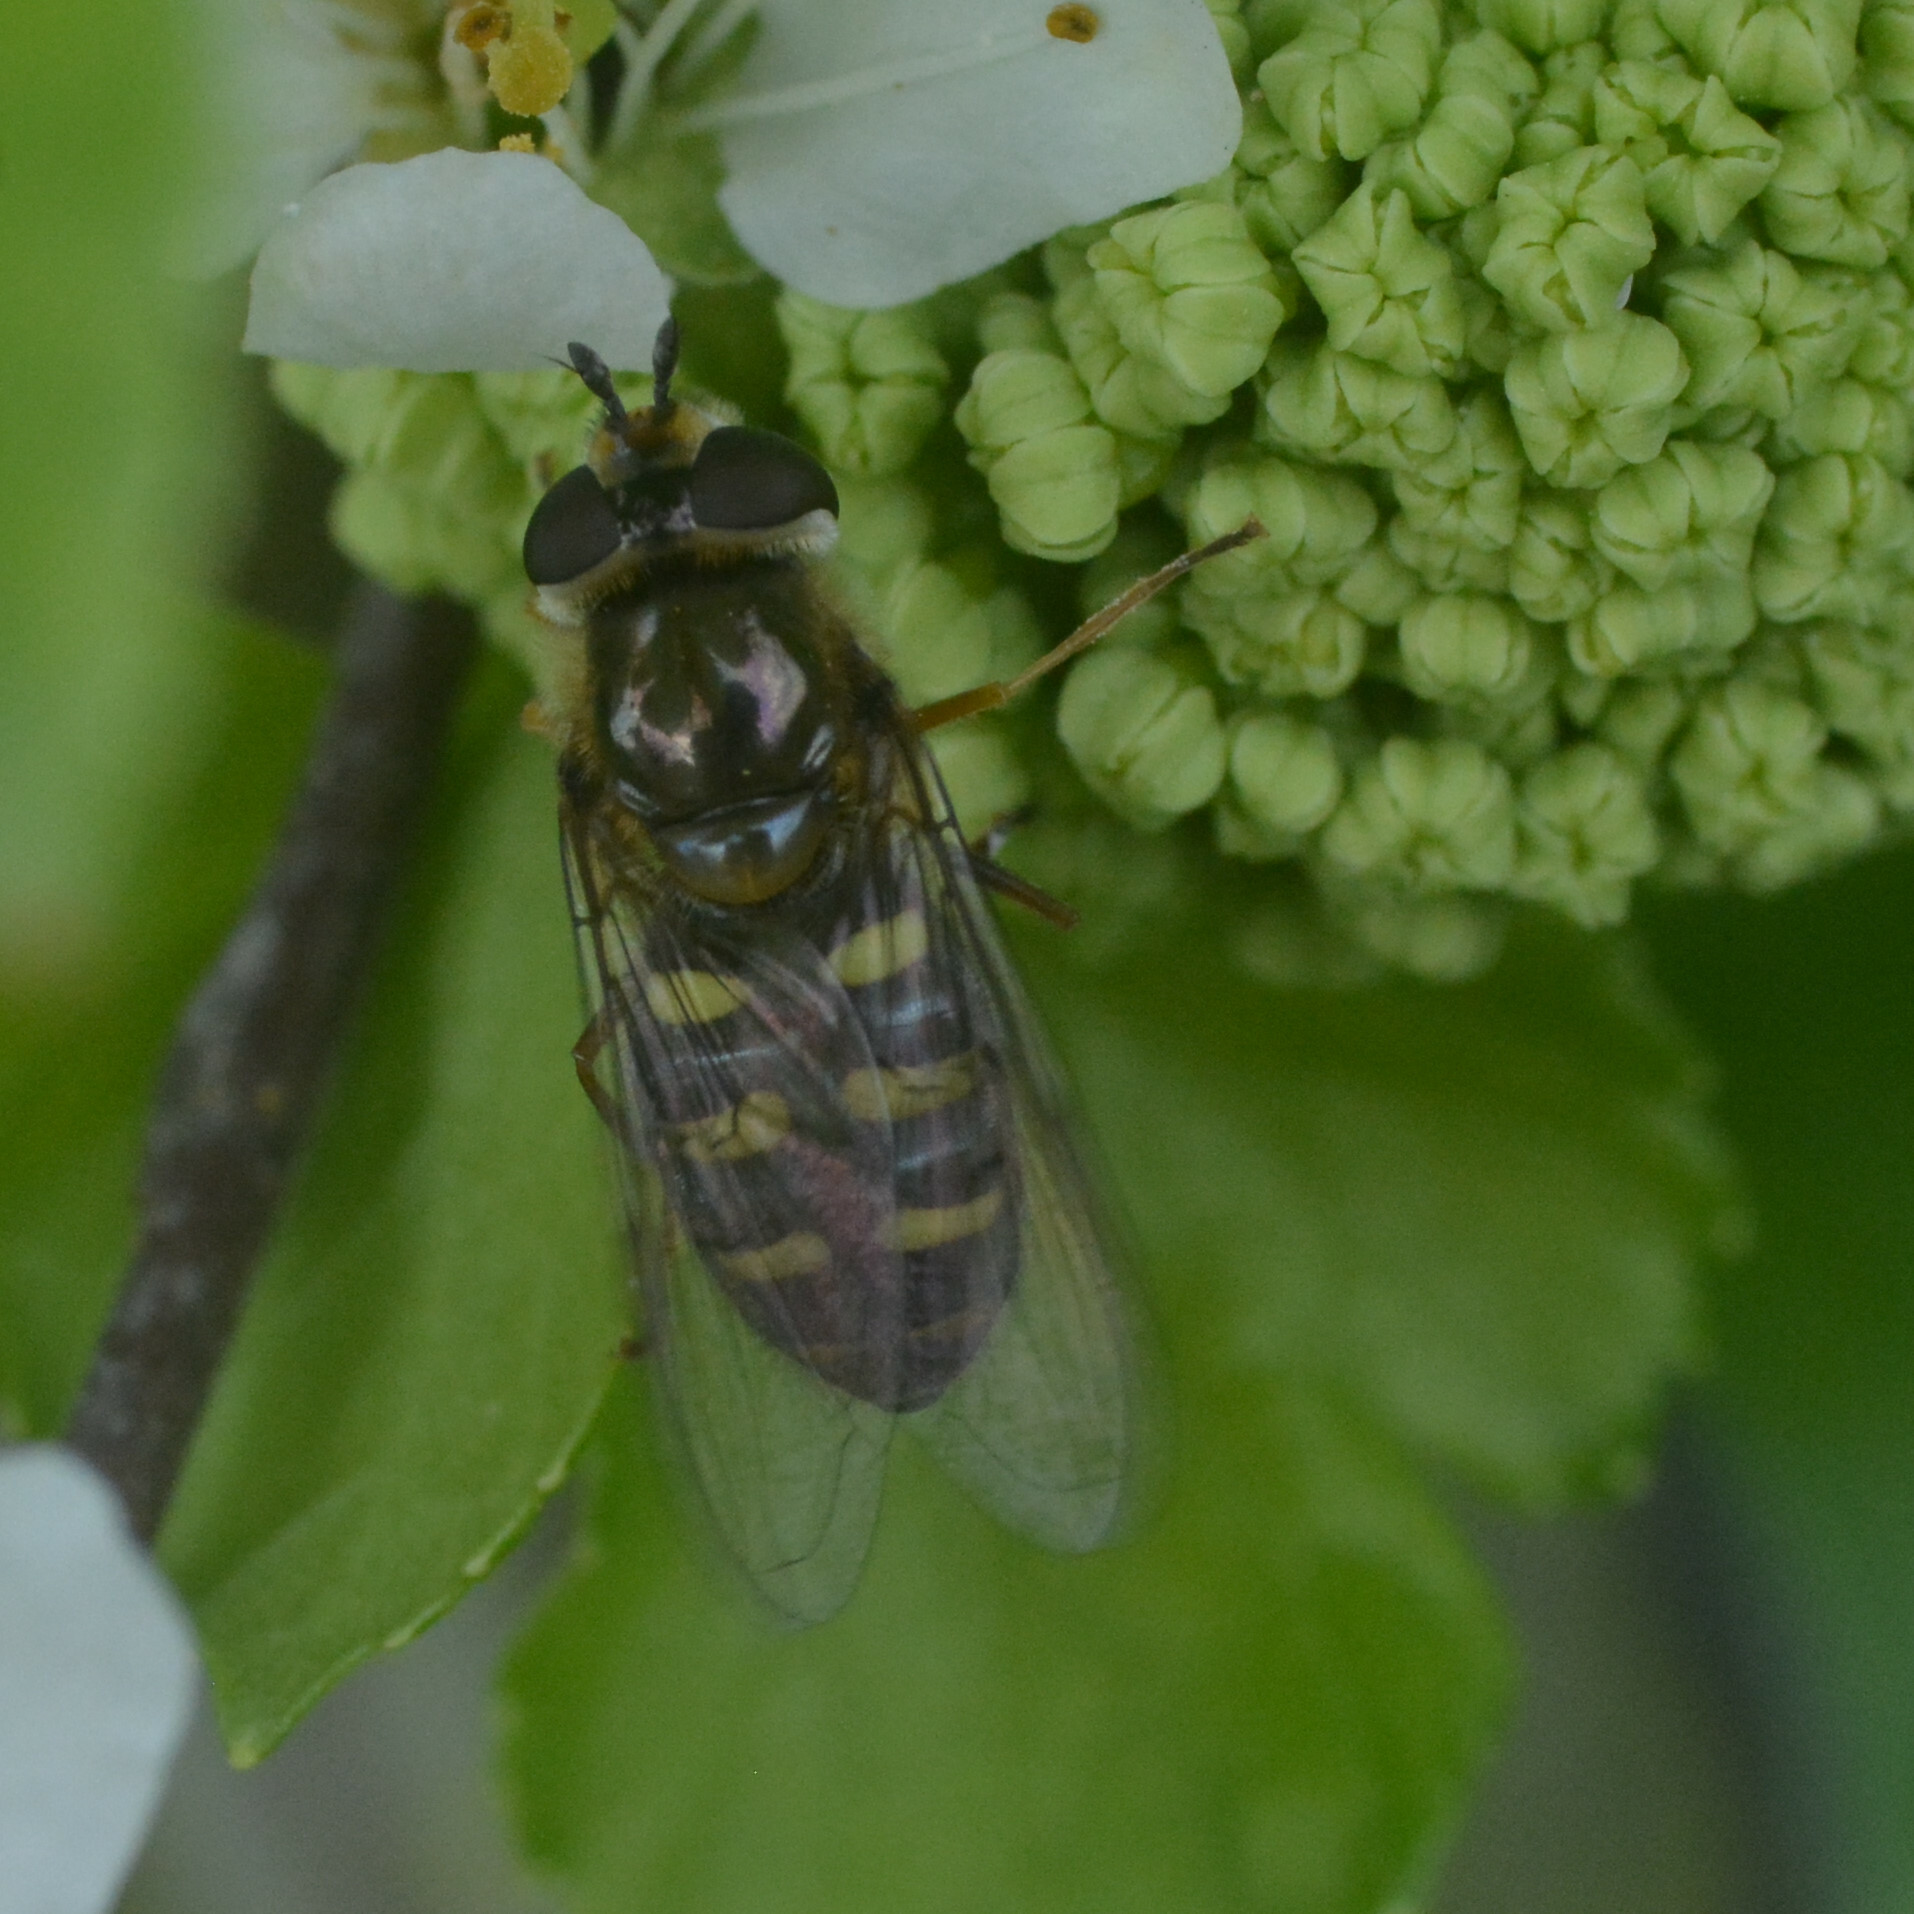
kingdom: Animalia
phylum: Arthropoda
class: Insecta
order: Diptera
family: Syrphidae
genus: Eupeodes
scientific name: Eupeodes luniger
